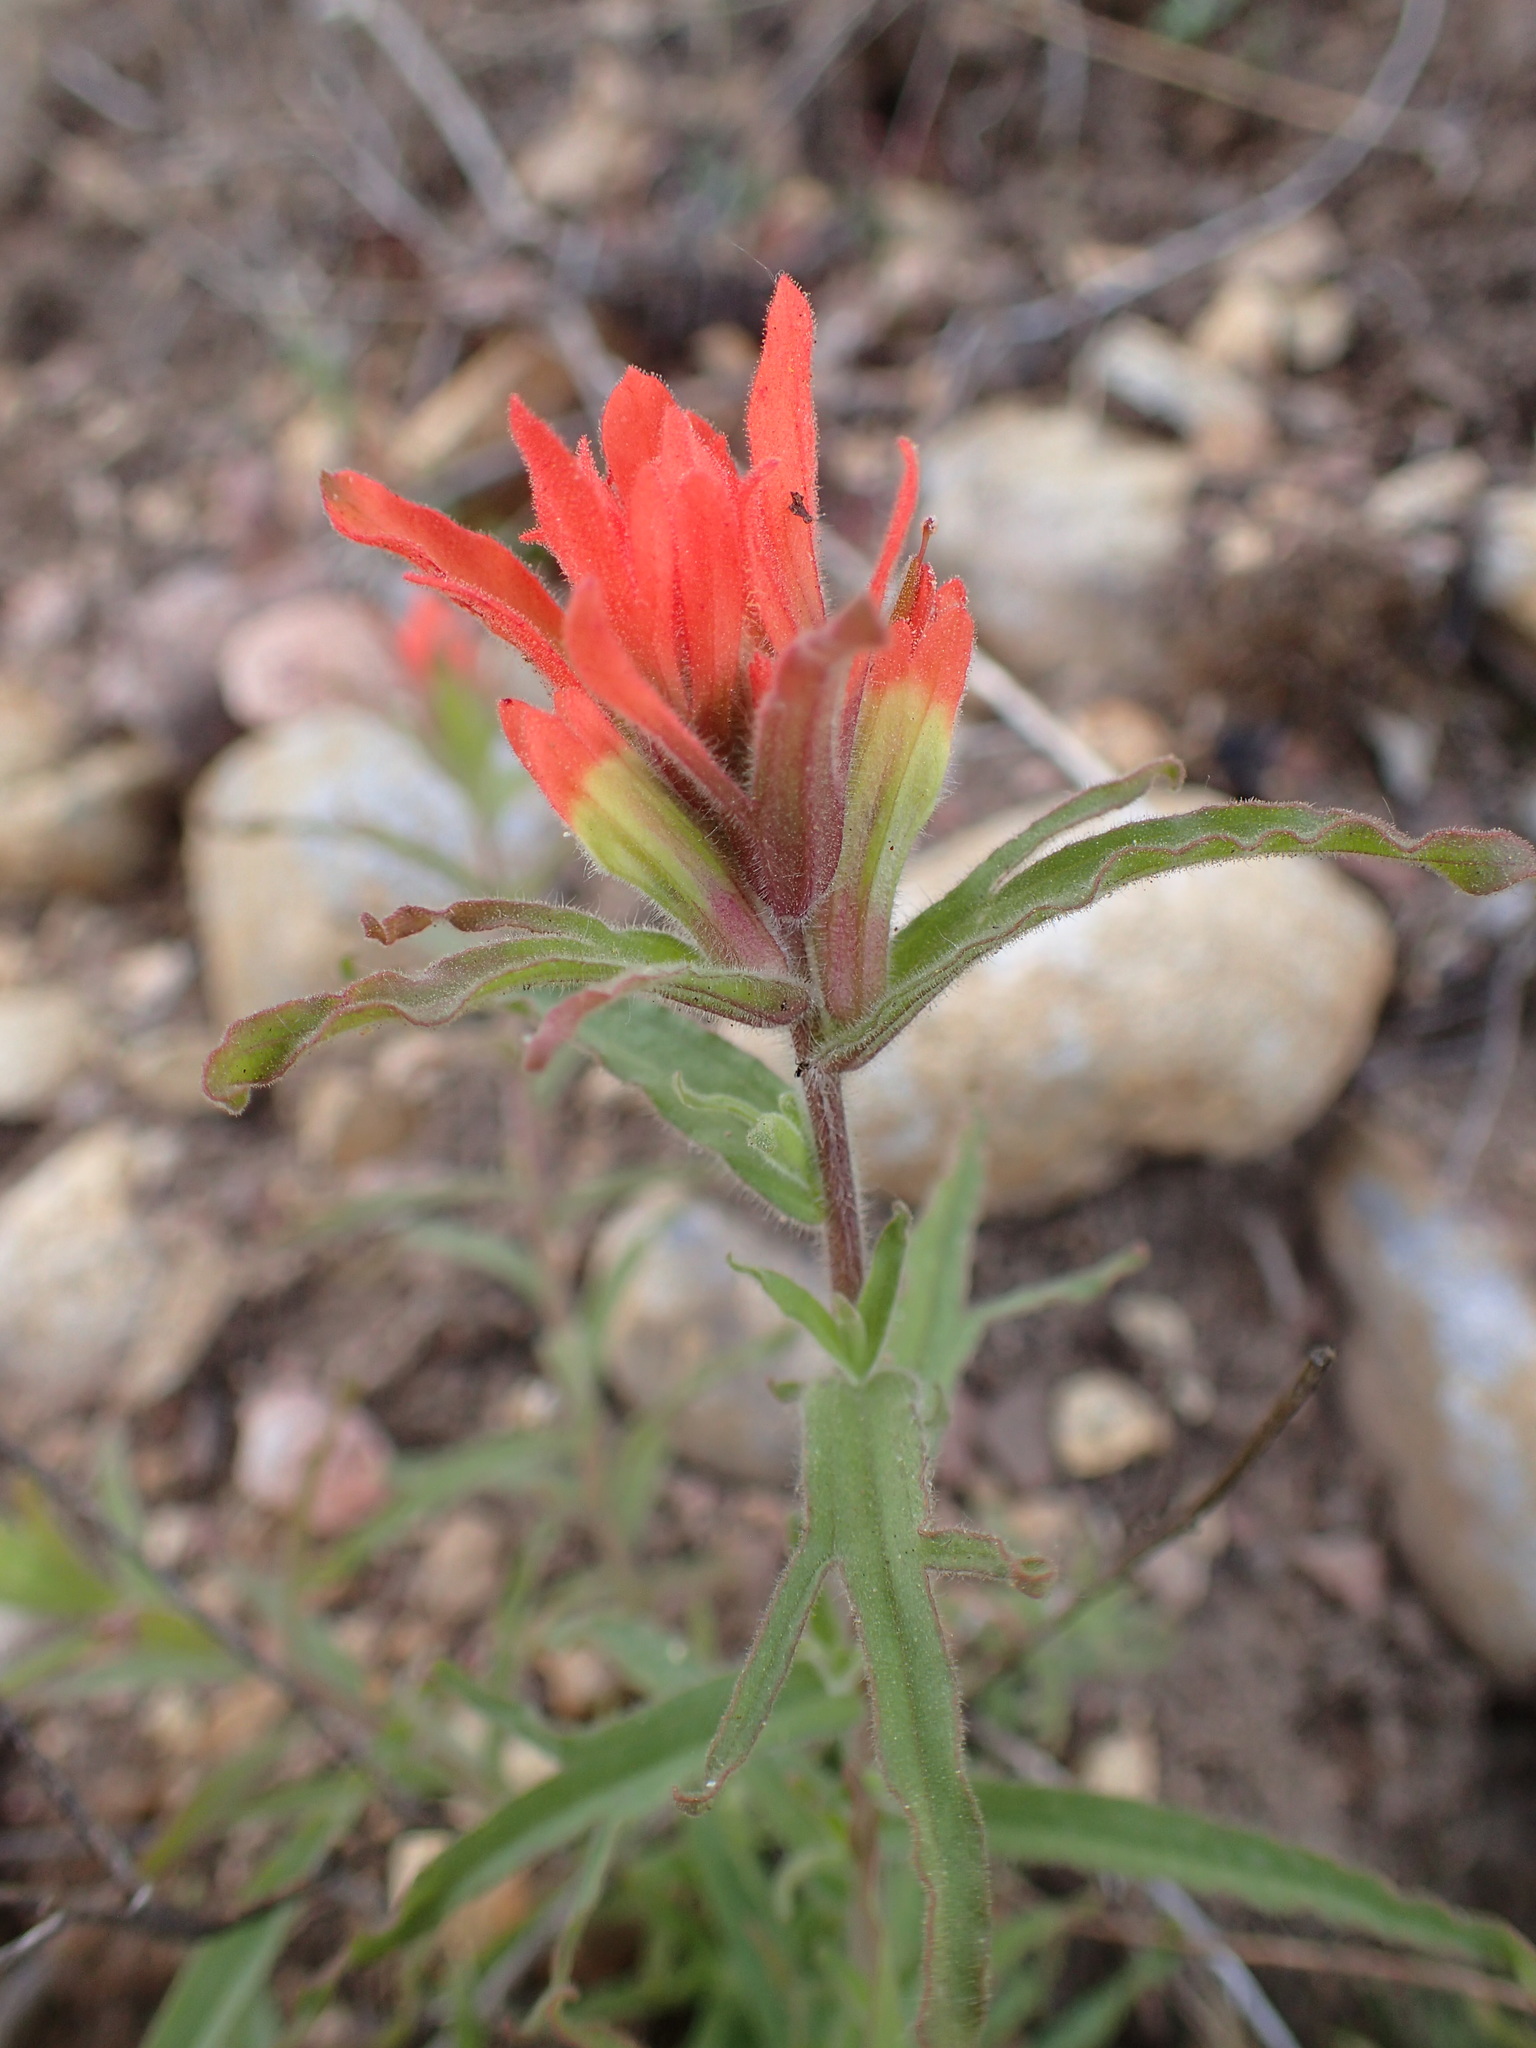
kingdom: Plantae
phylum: Tracheophyta
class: Magnoliopsida
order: Lamiales
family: Orobanchaceae
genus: Castilleja
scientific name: Castilleja affinis
